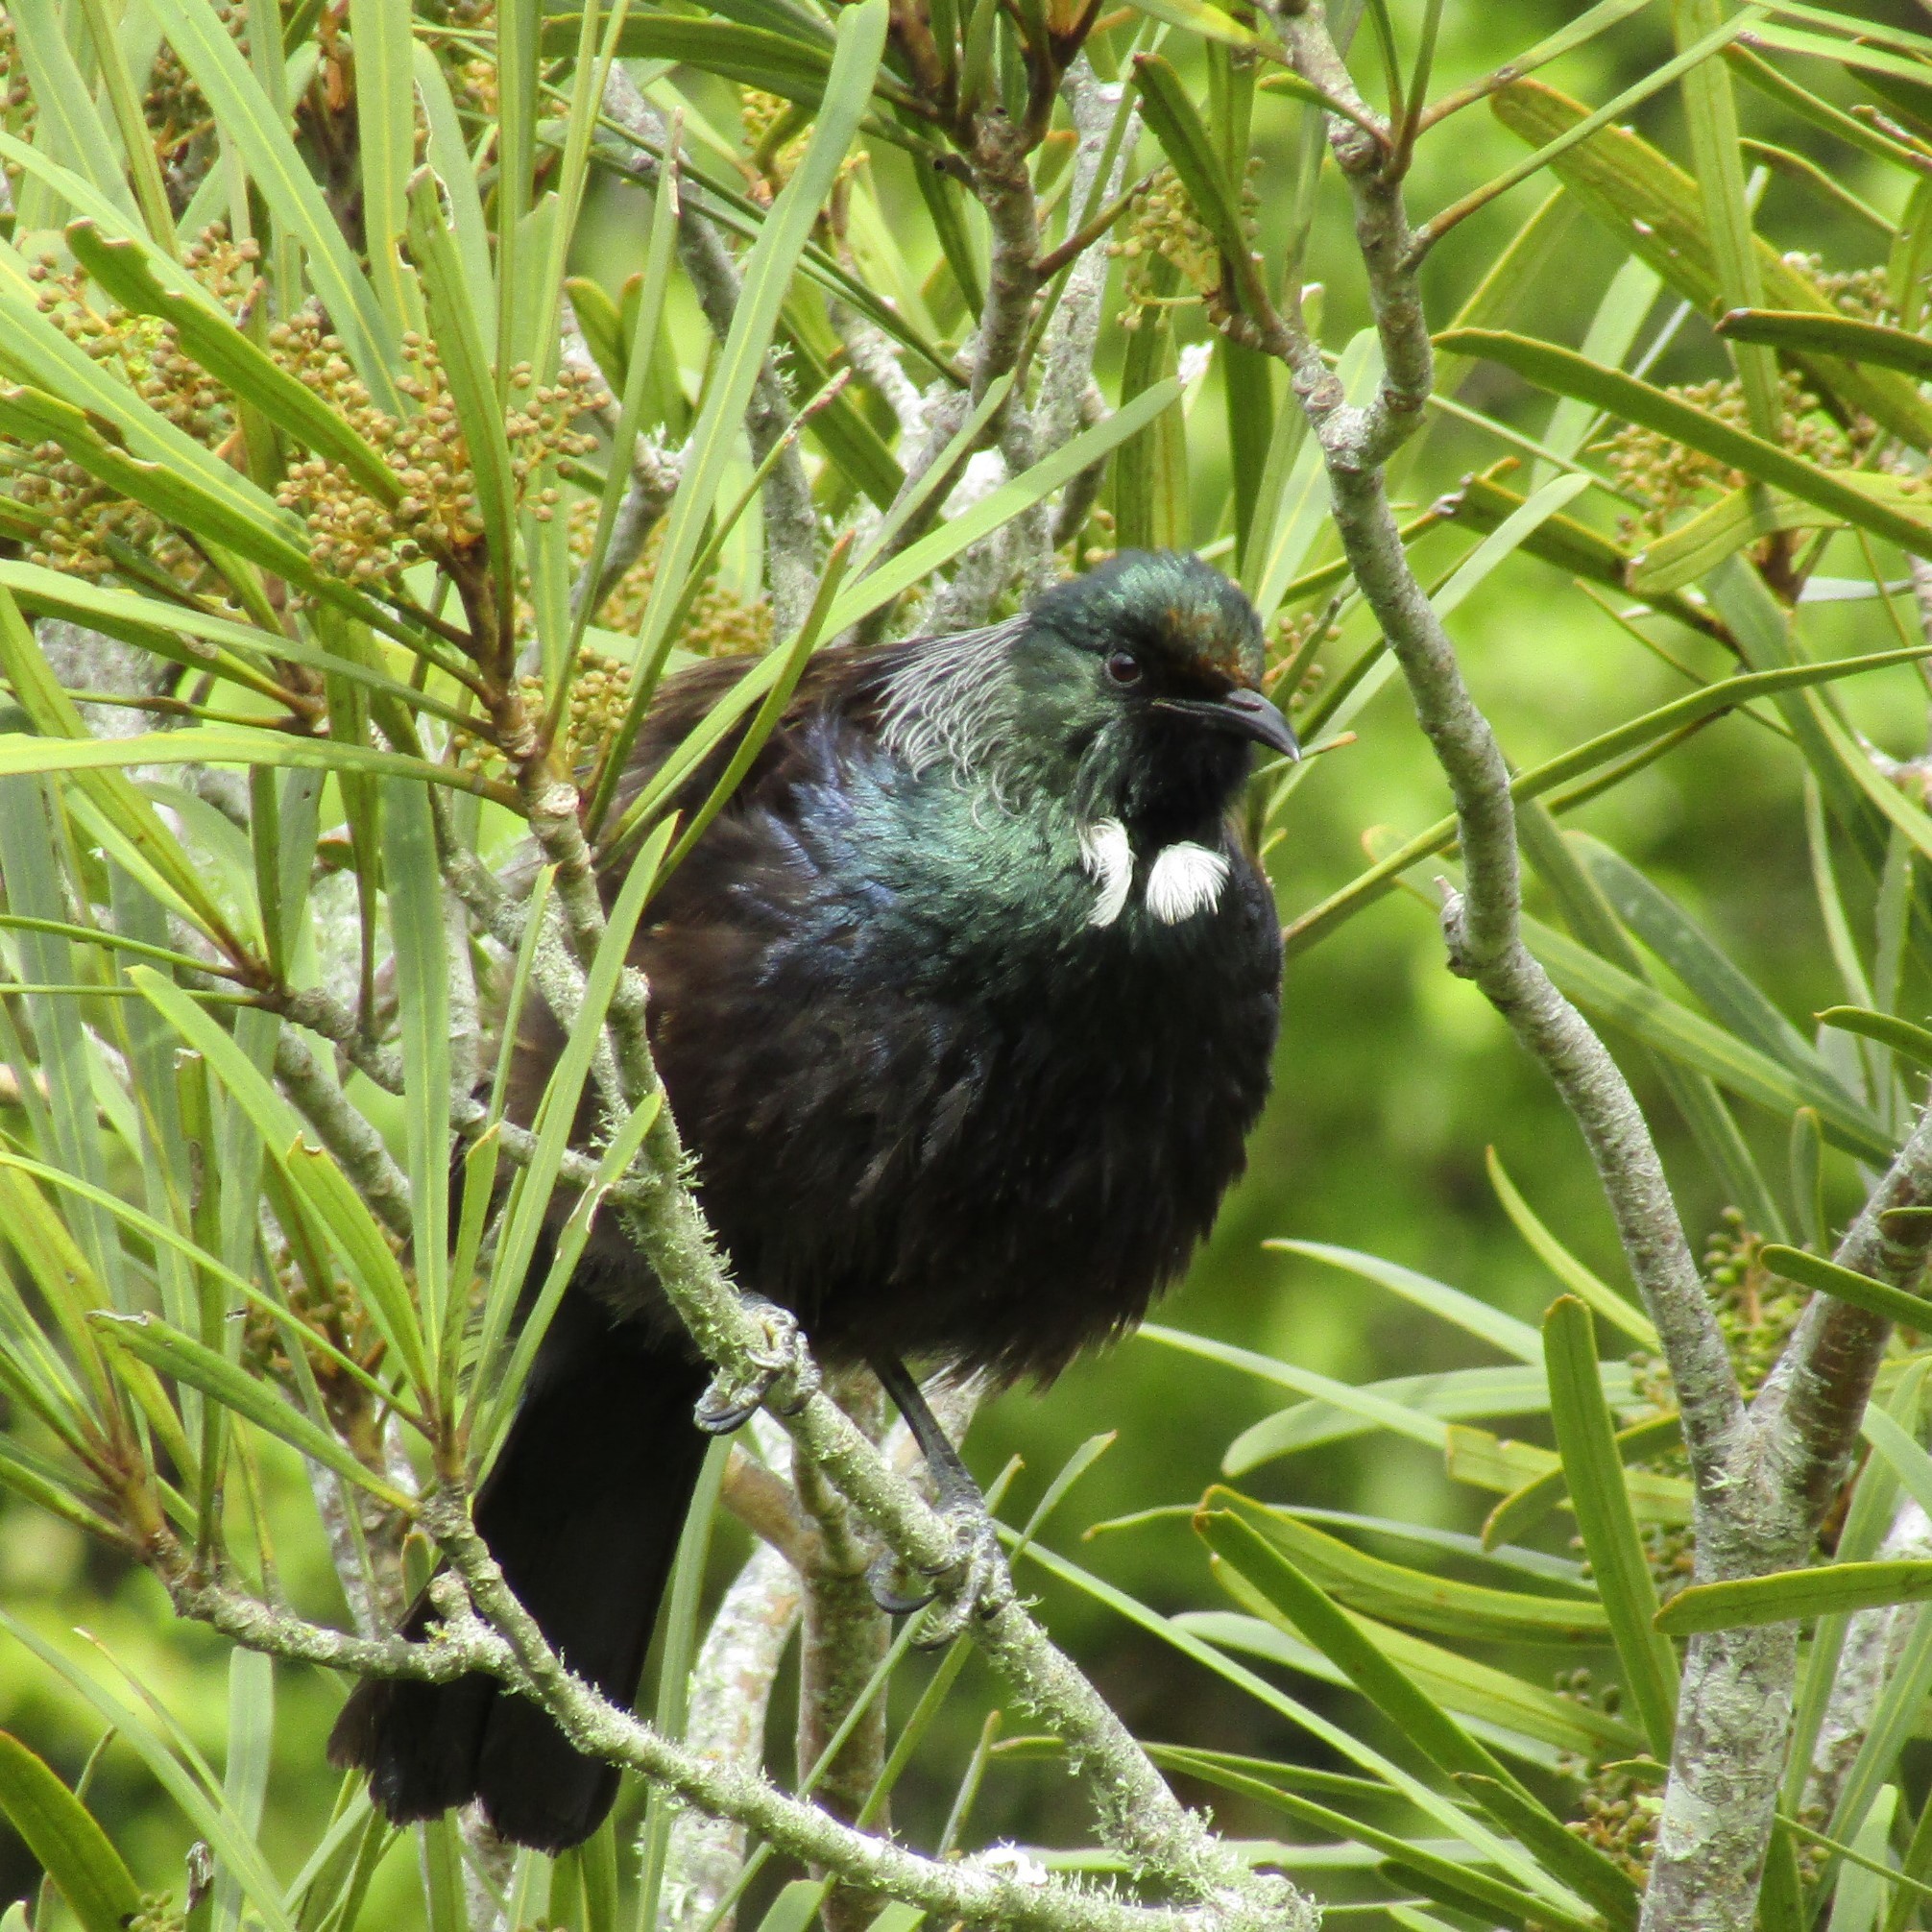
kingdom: Animalia
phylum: Chordata
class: Aves
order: Passeriformes
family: Meliphagidae
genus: Prosthemadera
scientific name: Prosthemadera novaeseelandiae
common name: Tui
